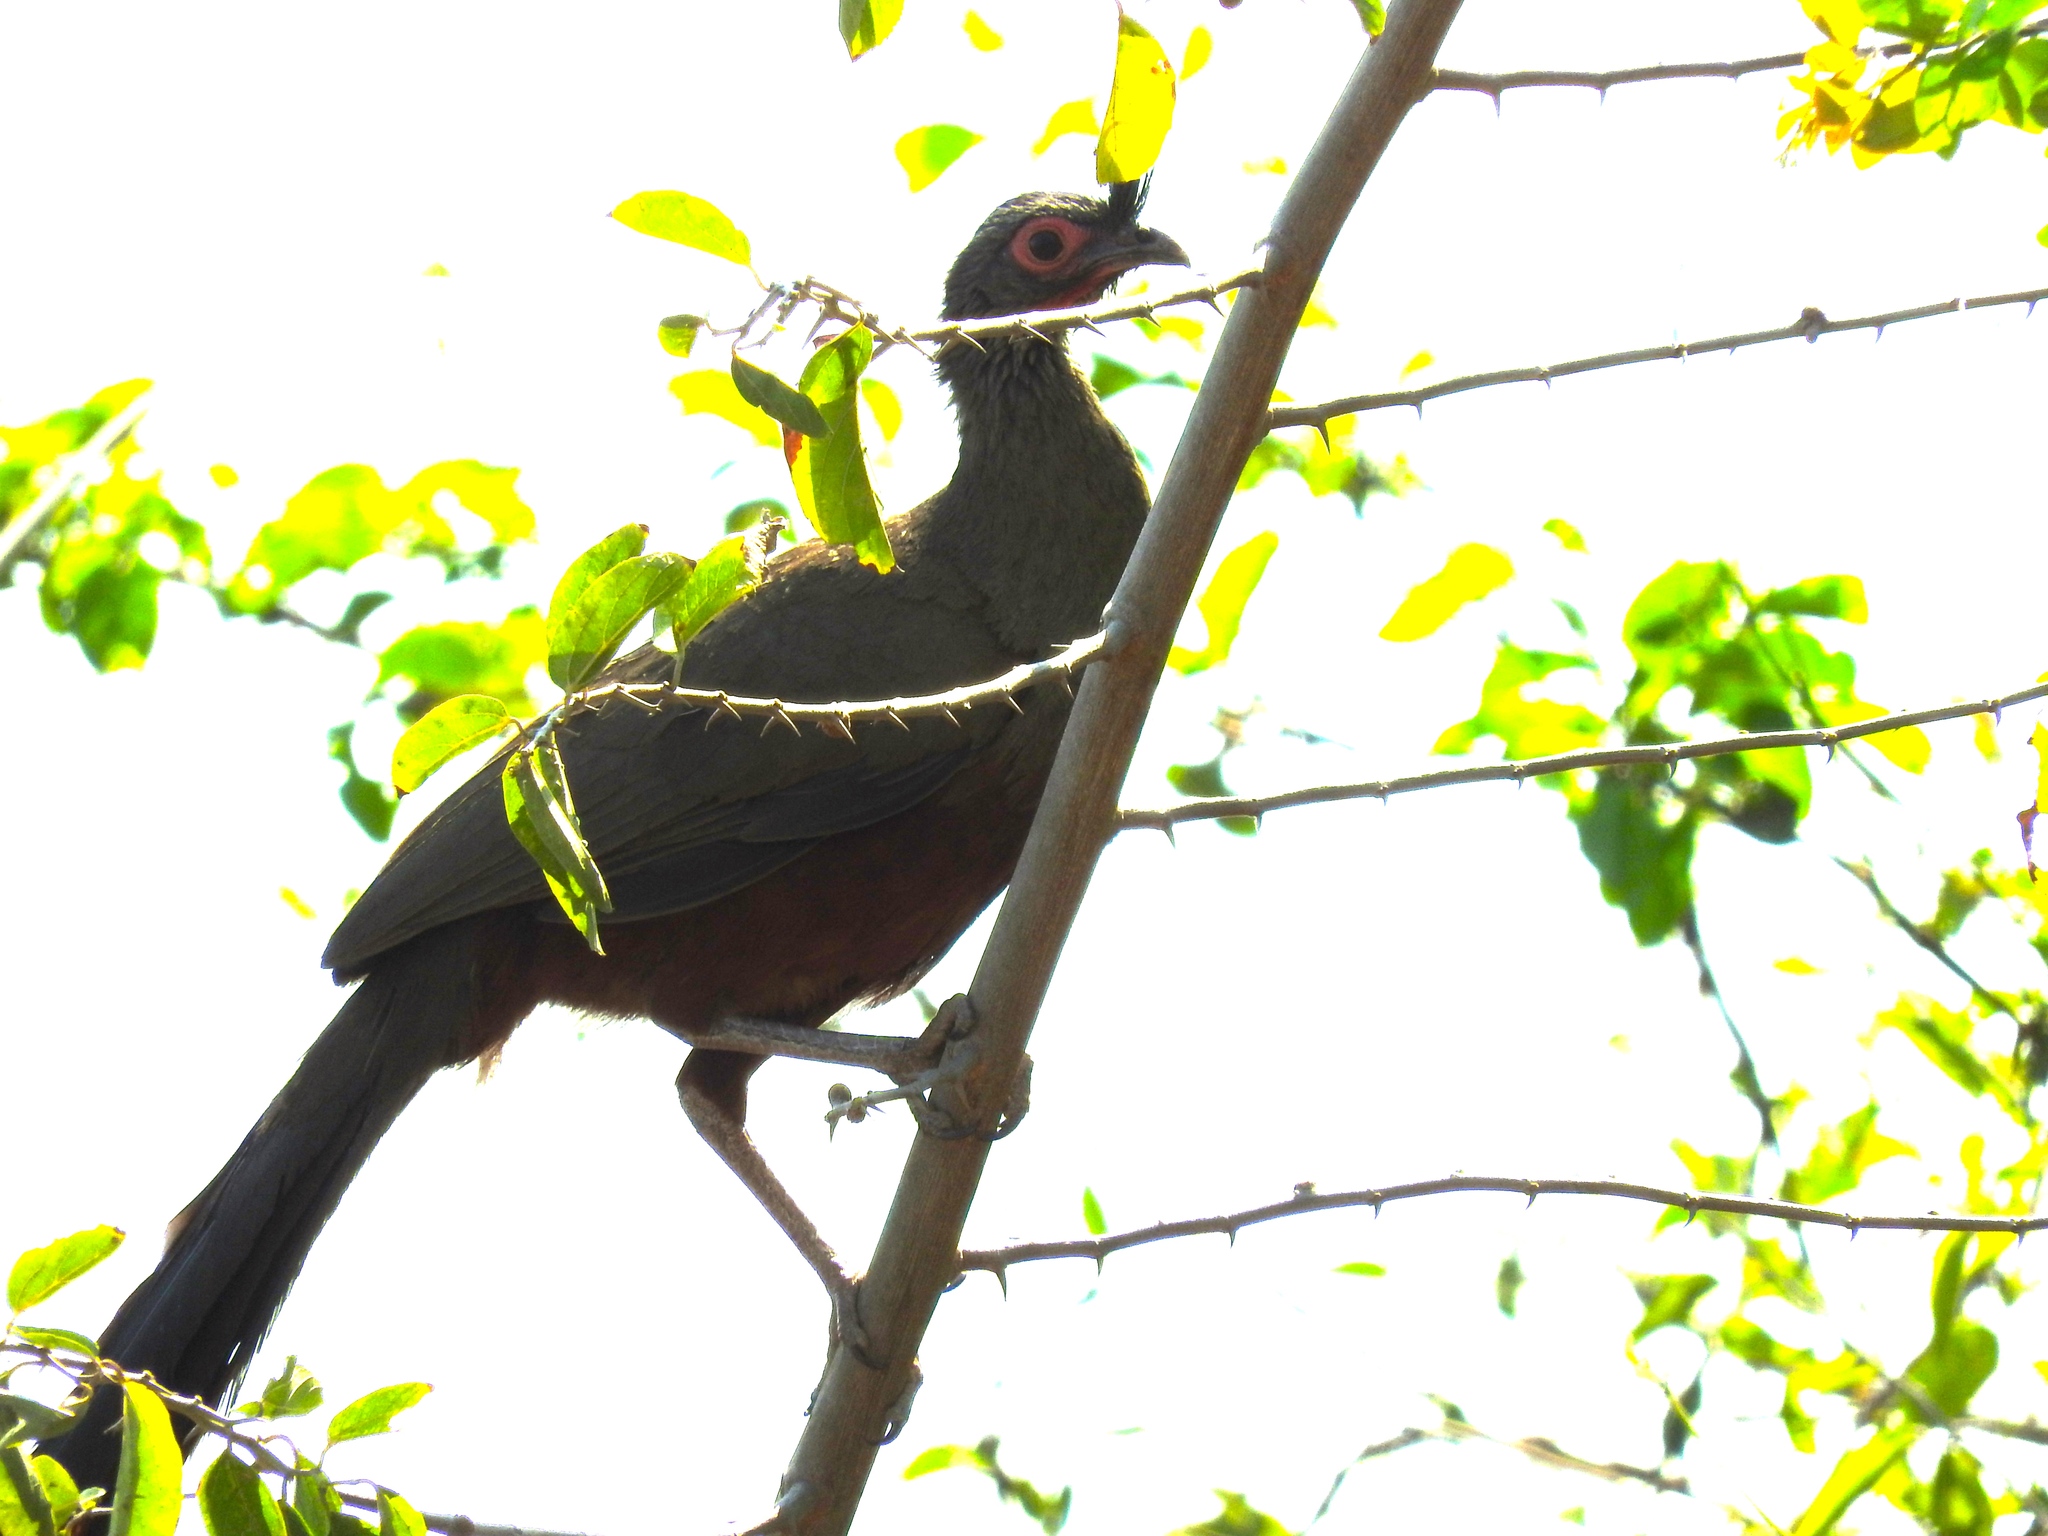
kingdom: Animalia
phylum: Chordata
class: Aves
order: Galliformes
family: Cracidae
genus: Ortalis
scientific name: Ortalis wagleri
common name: Rufous-bellied chachalaca
